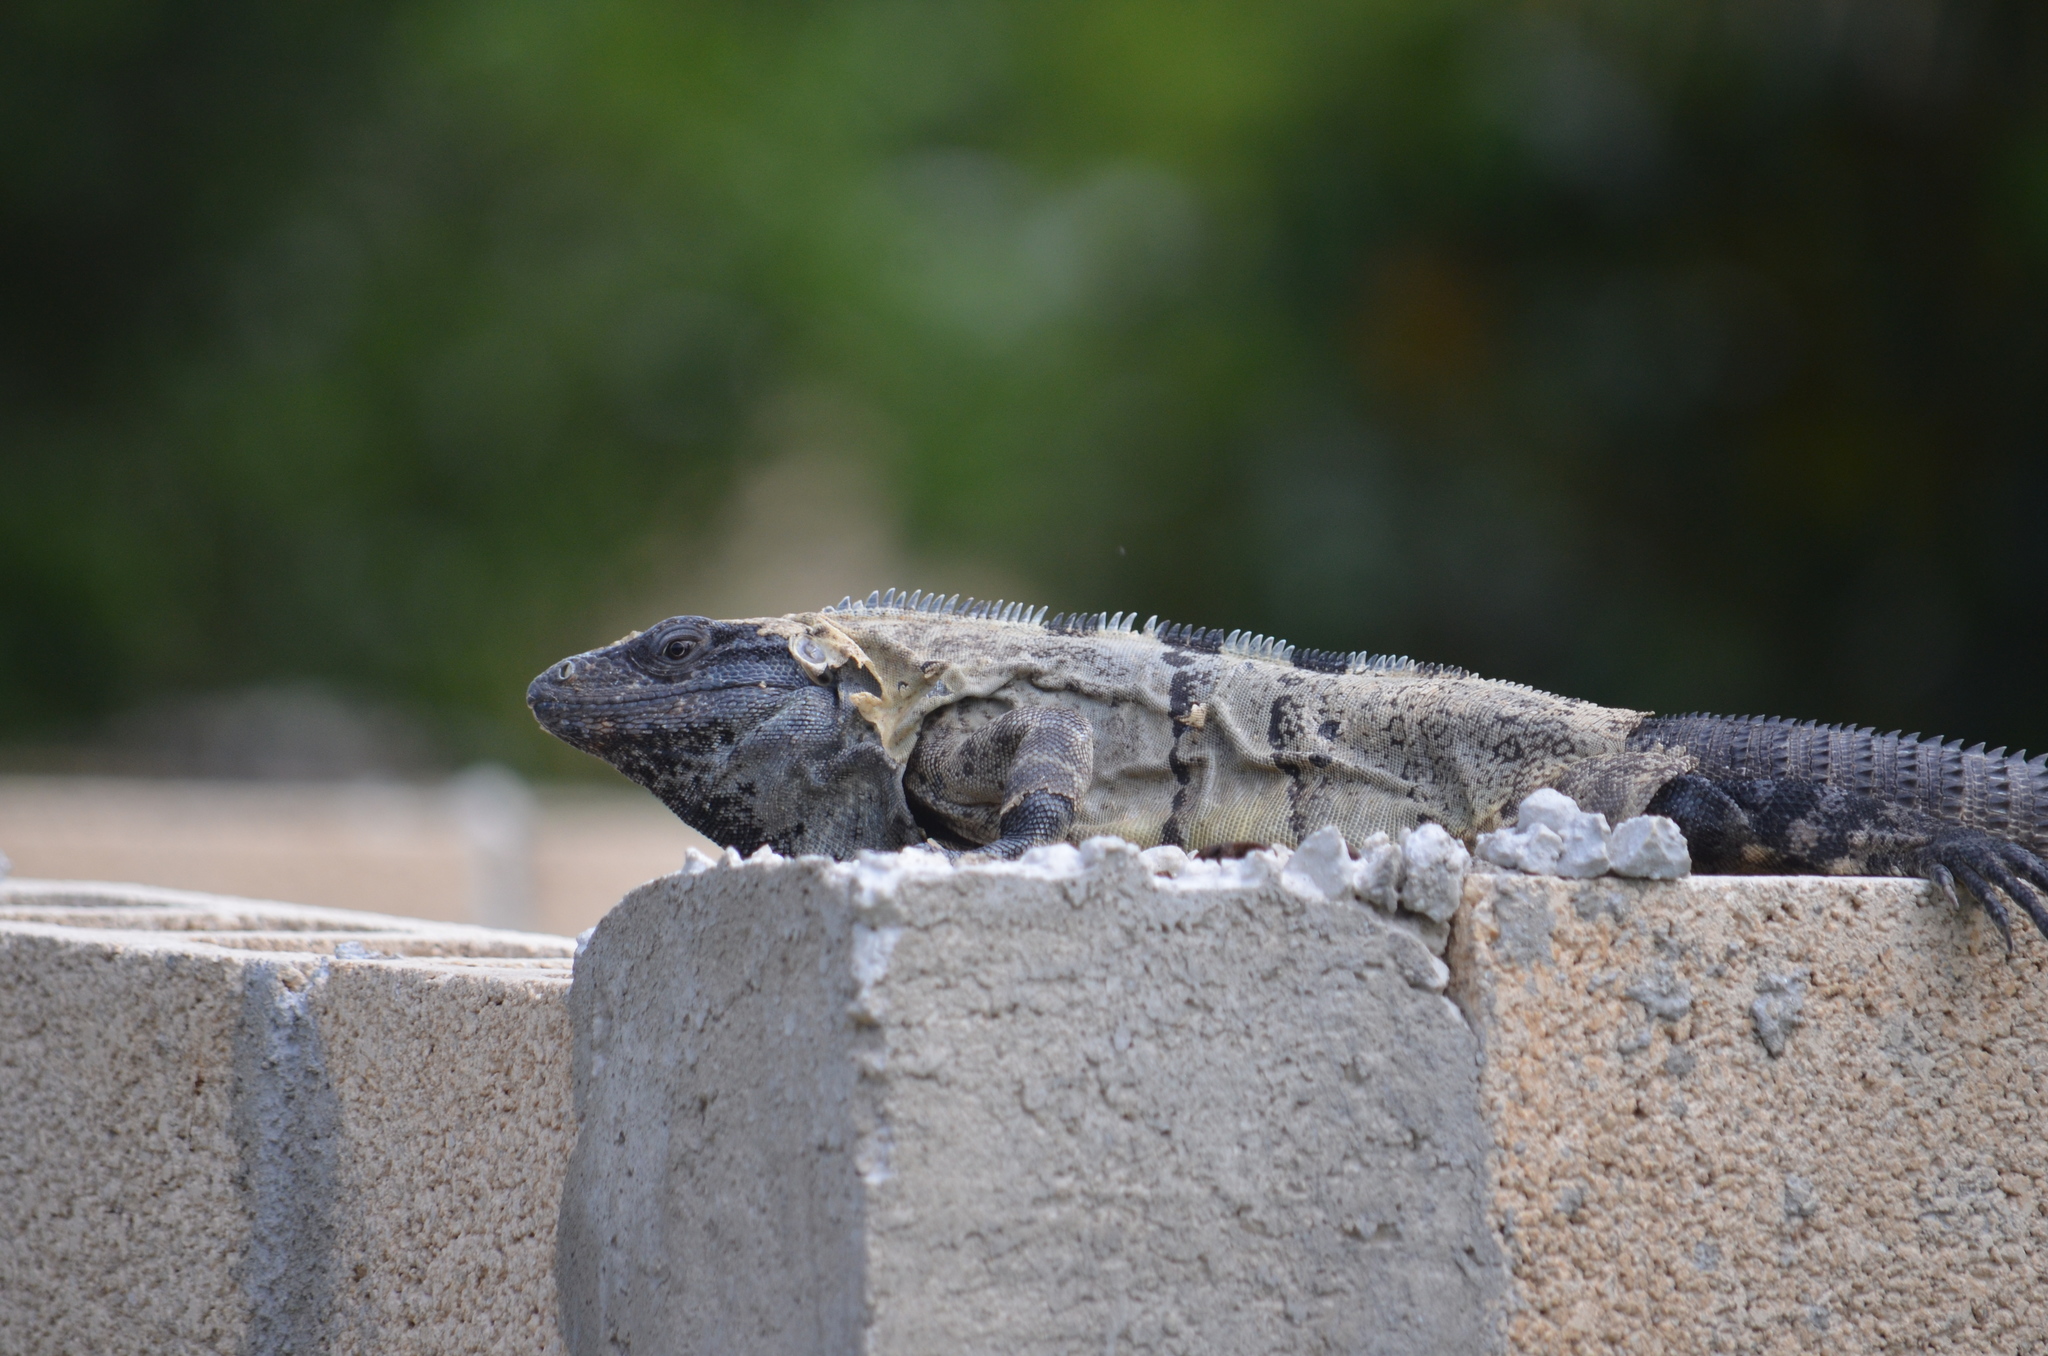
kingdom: Animalia
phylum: Chordata
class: Squamata
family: Iguanidae
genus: Ctenosaura
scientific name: Ctenosaura similis
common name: Black spiny-tailed iguana
